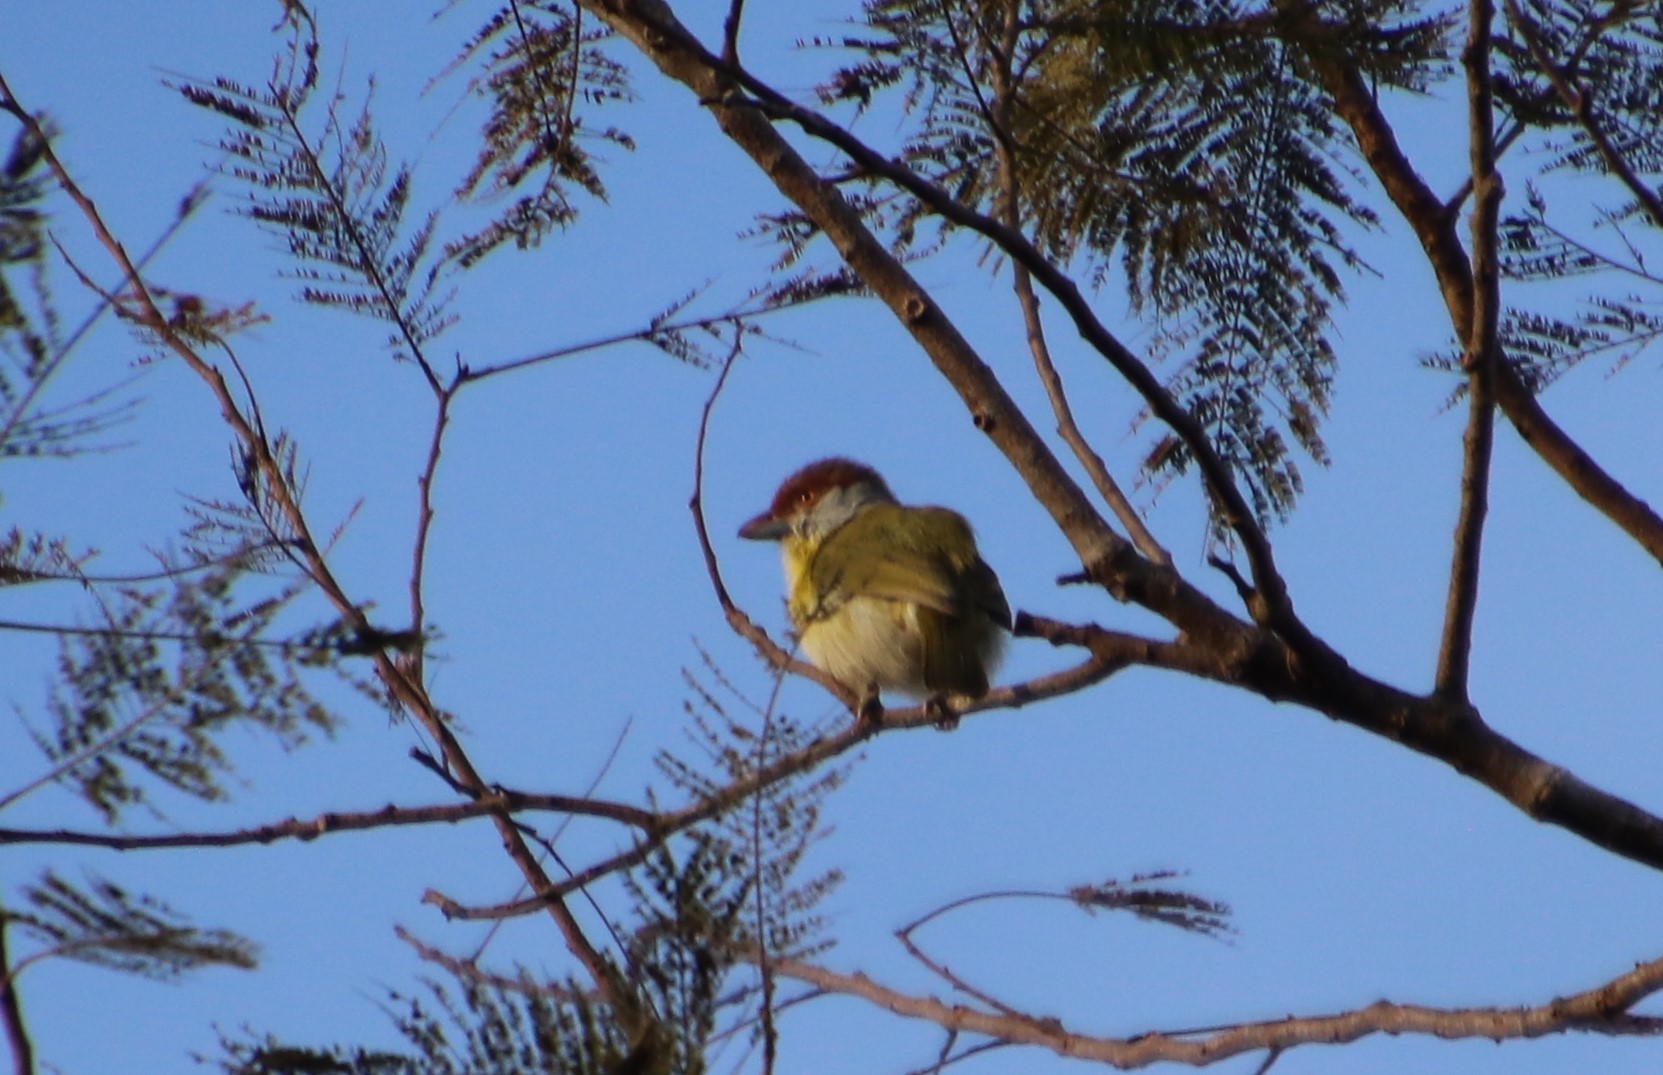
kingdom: Animalia
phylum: Chordata
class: Aves
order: Passeriformes
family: Vireonidae
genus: Cyclarhis
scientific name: Cyclarhis gujanensis
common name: Rufous-browed peppershrike
